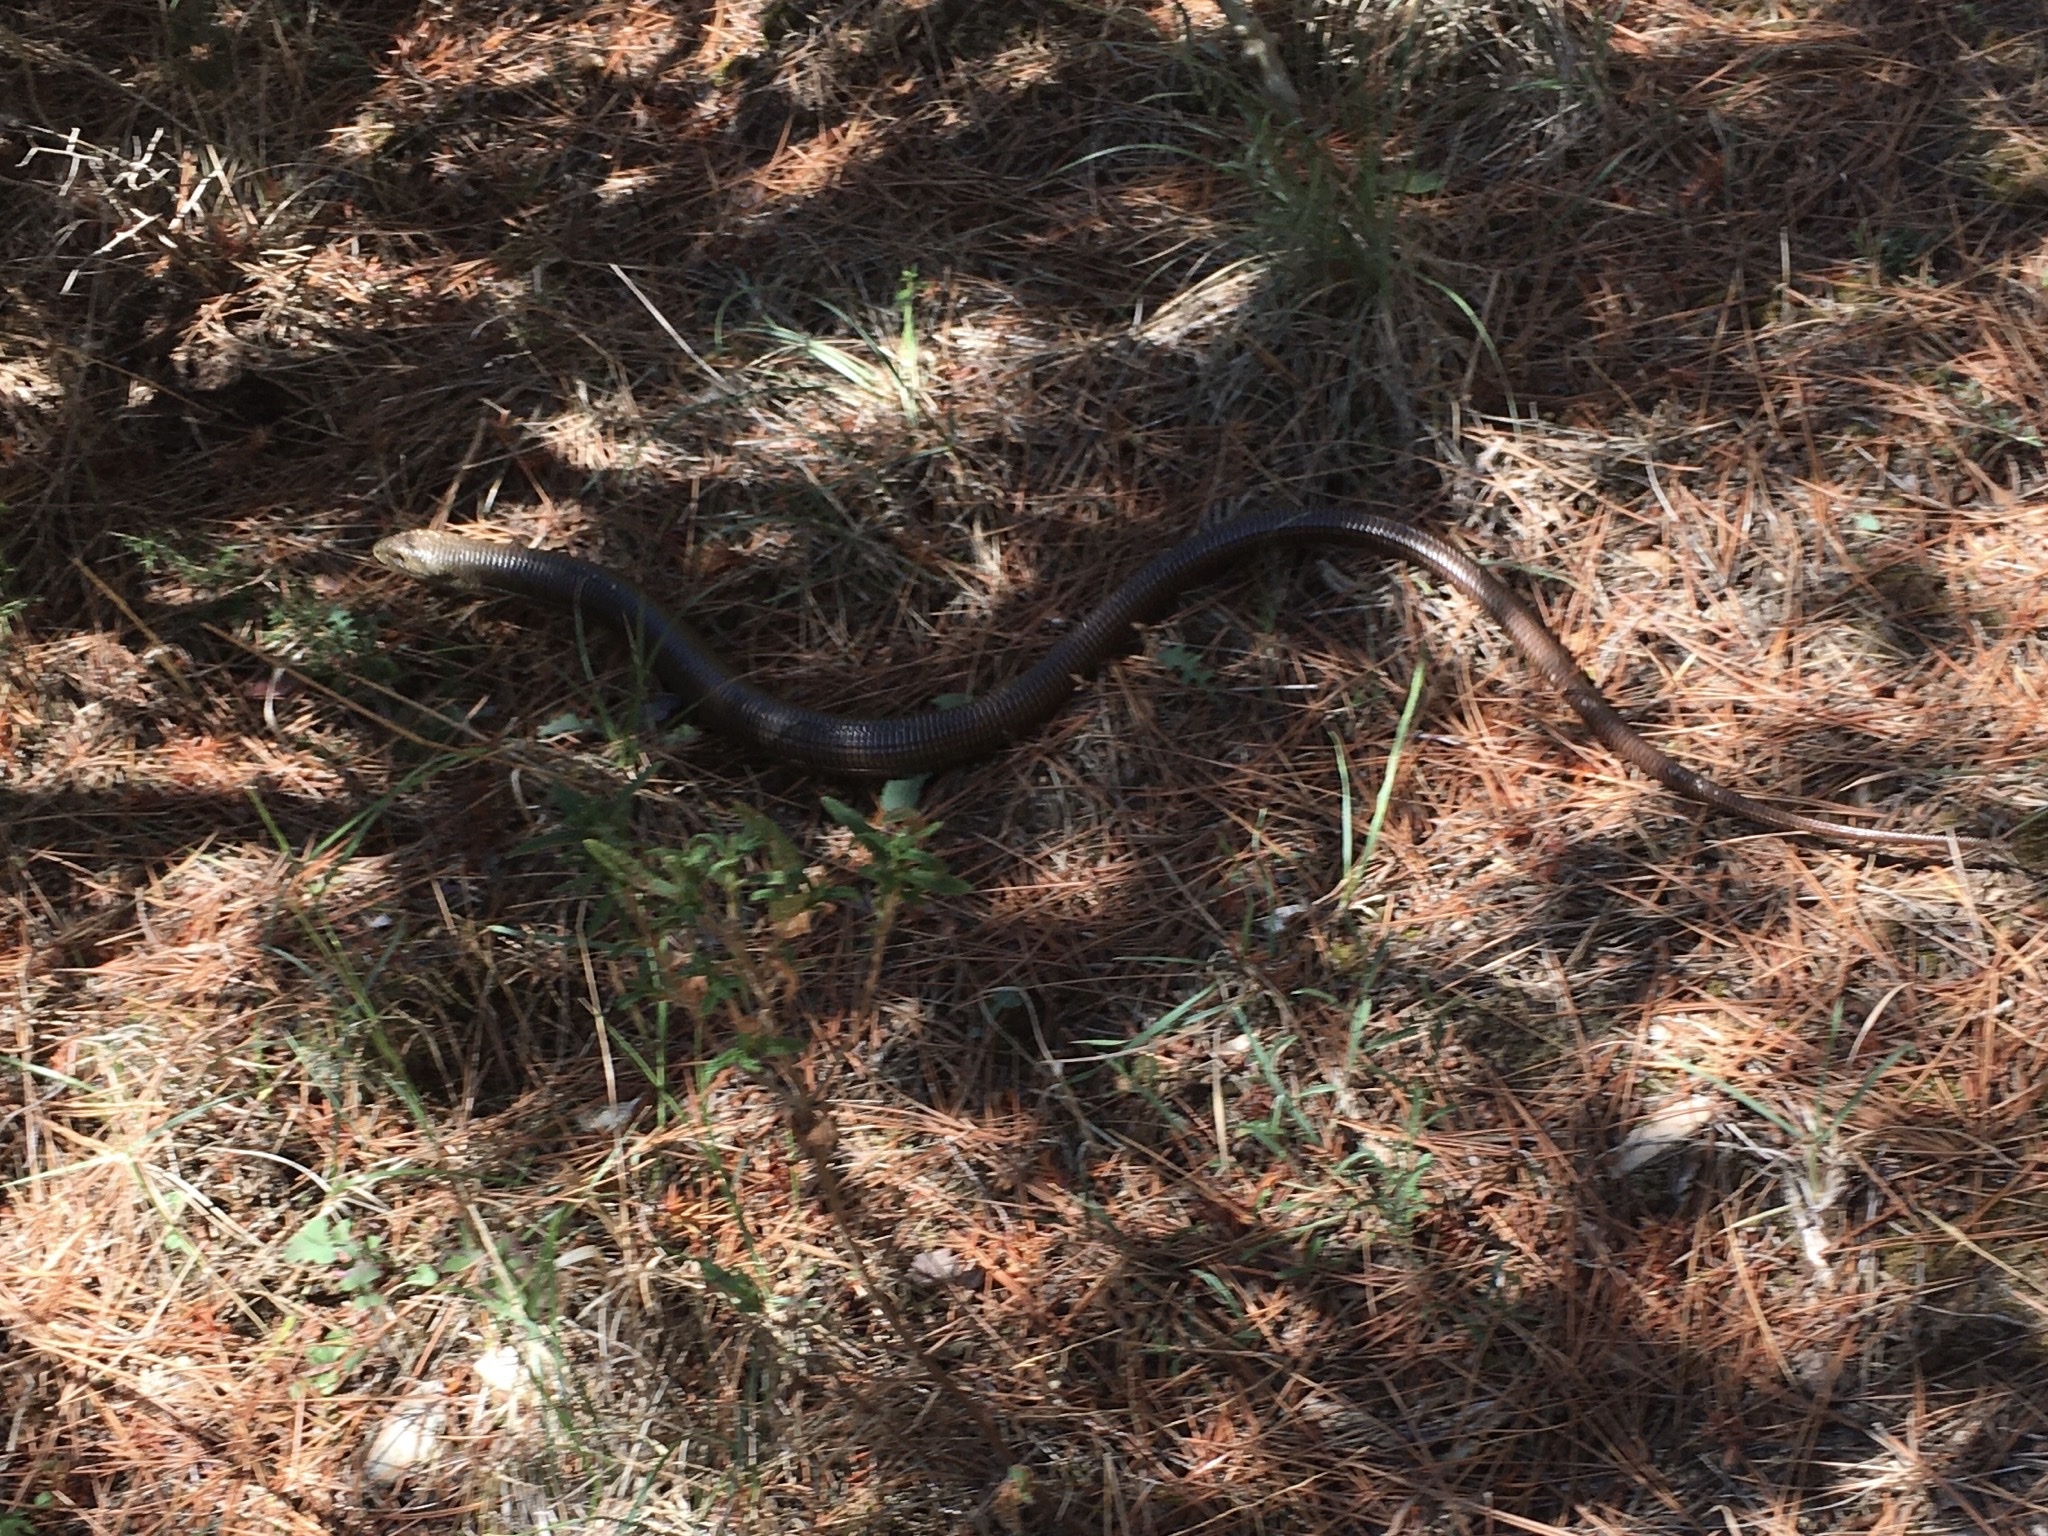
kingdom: Animalia
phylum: Chordata
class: Squamata
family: Anguidae
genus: Pseudopus
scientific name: Pseudopus apodus
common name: European glass lizard
